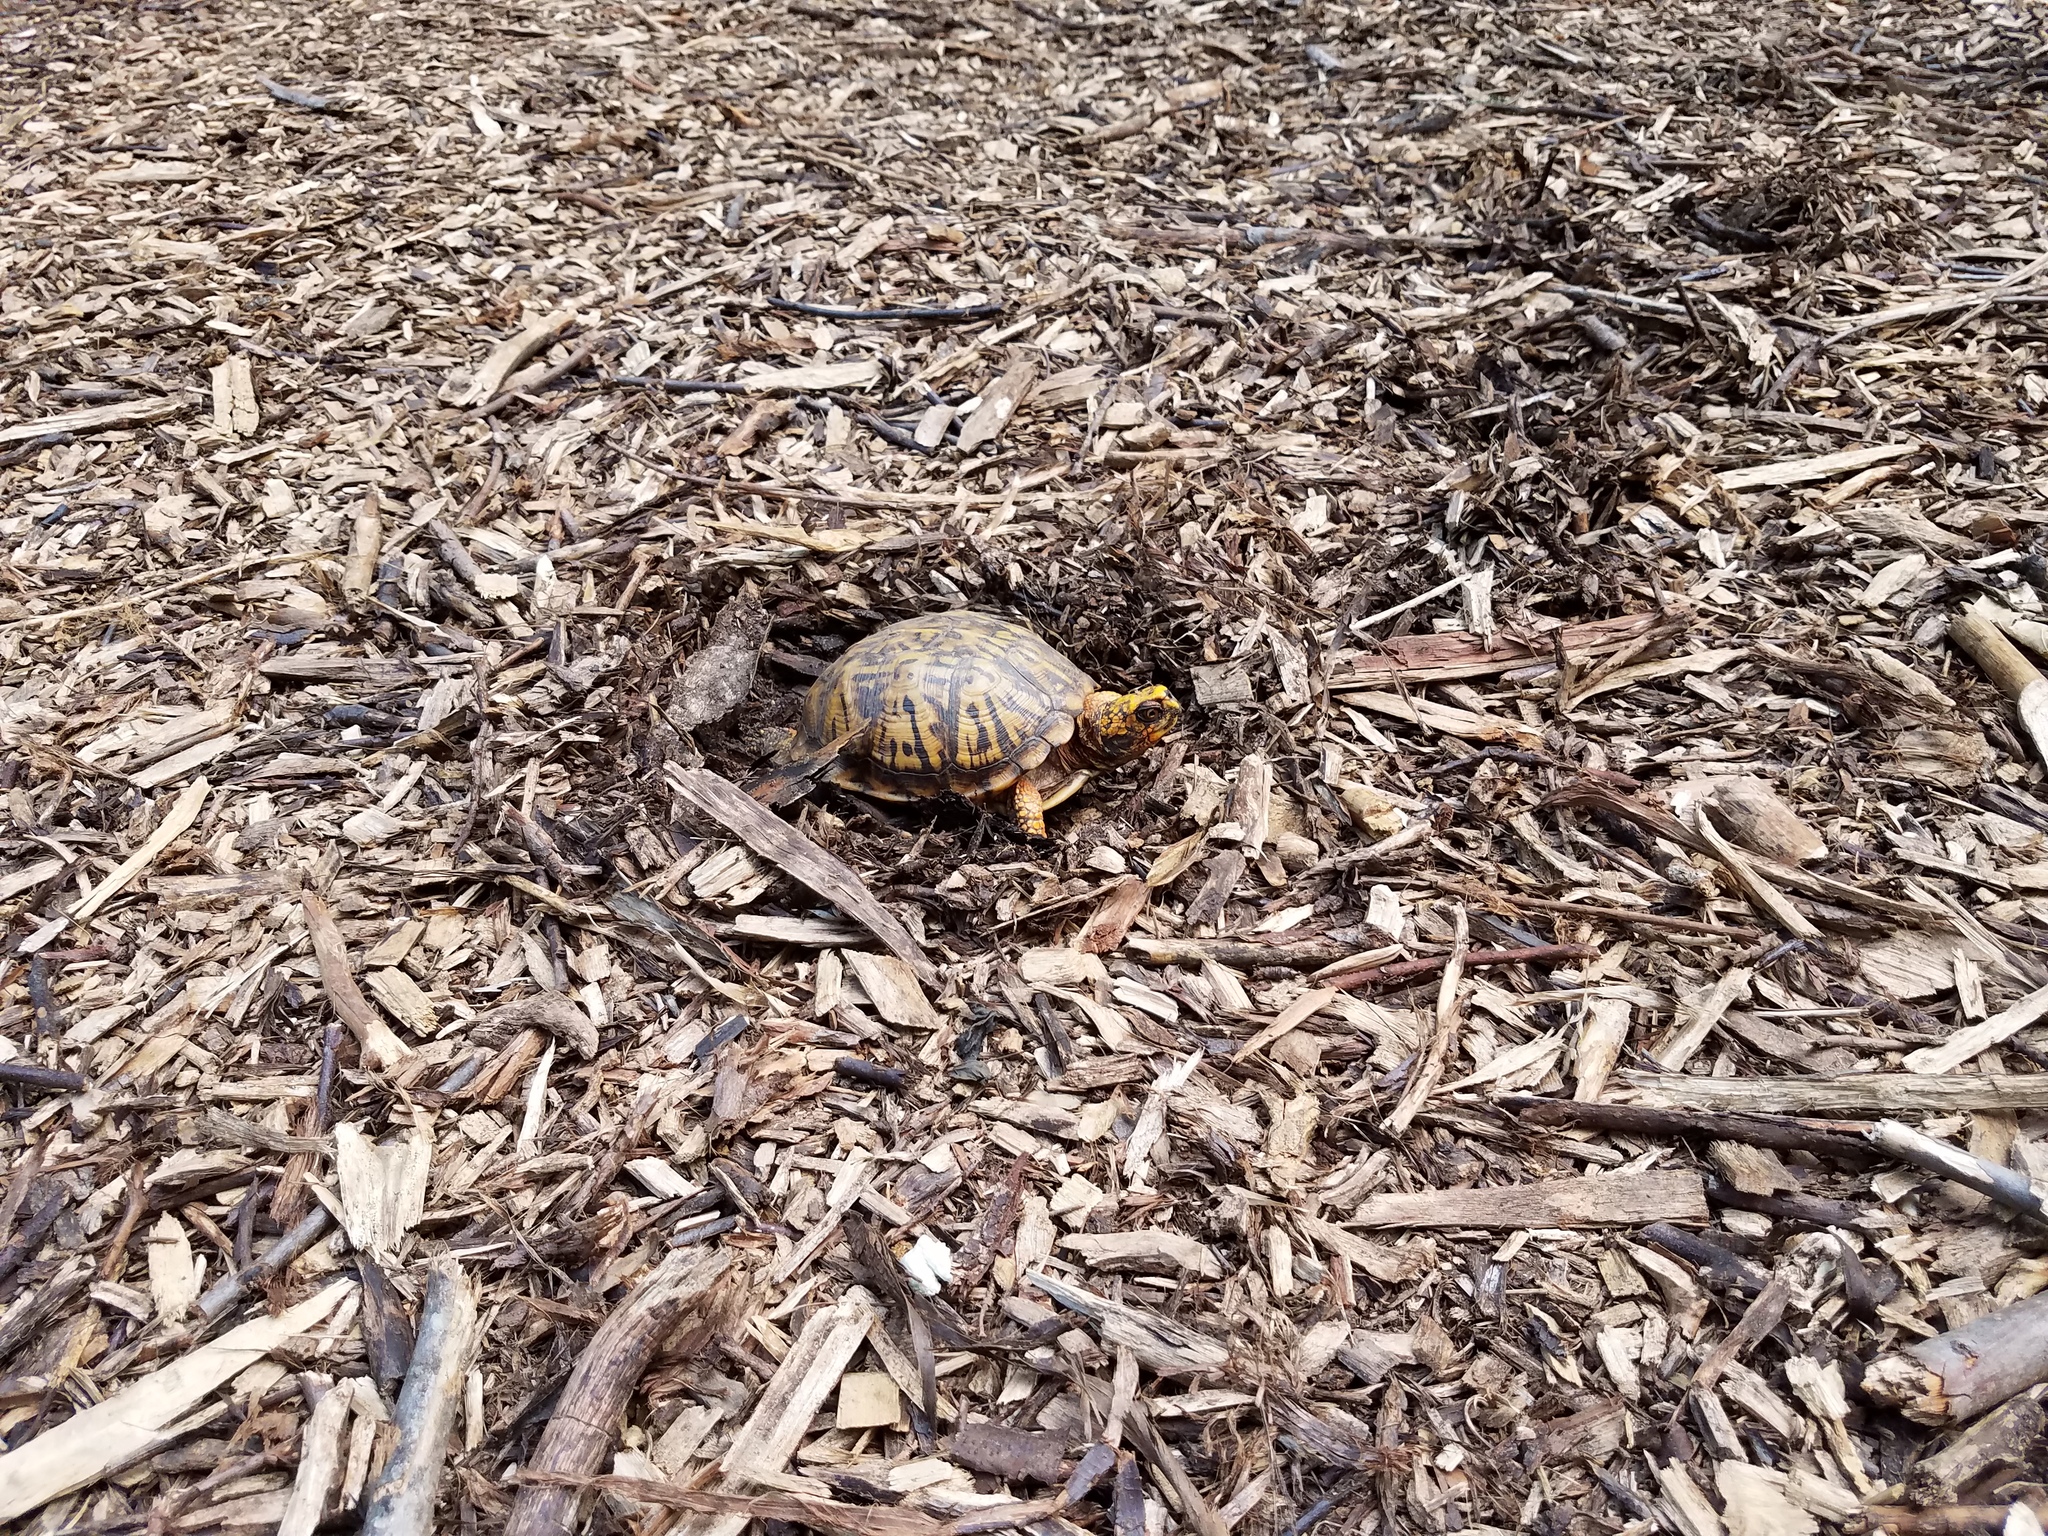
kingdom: Animalia
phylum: Chordata
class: Testudines
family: Emydidae
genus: Terrapene
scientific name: Terrapene carolina
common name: Common box turtle
